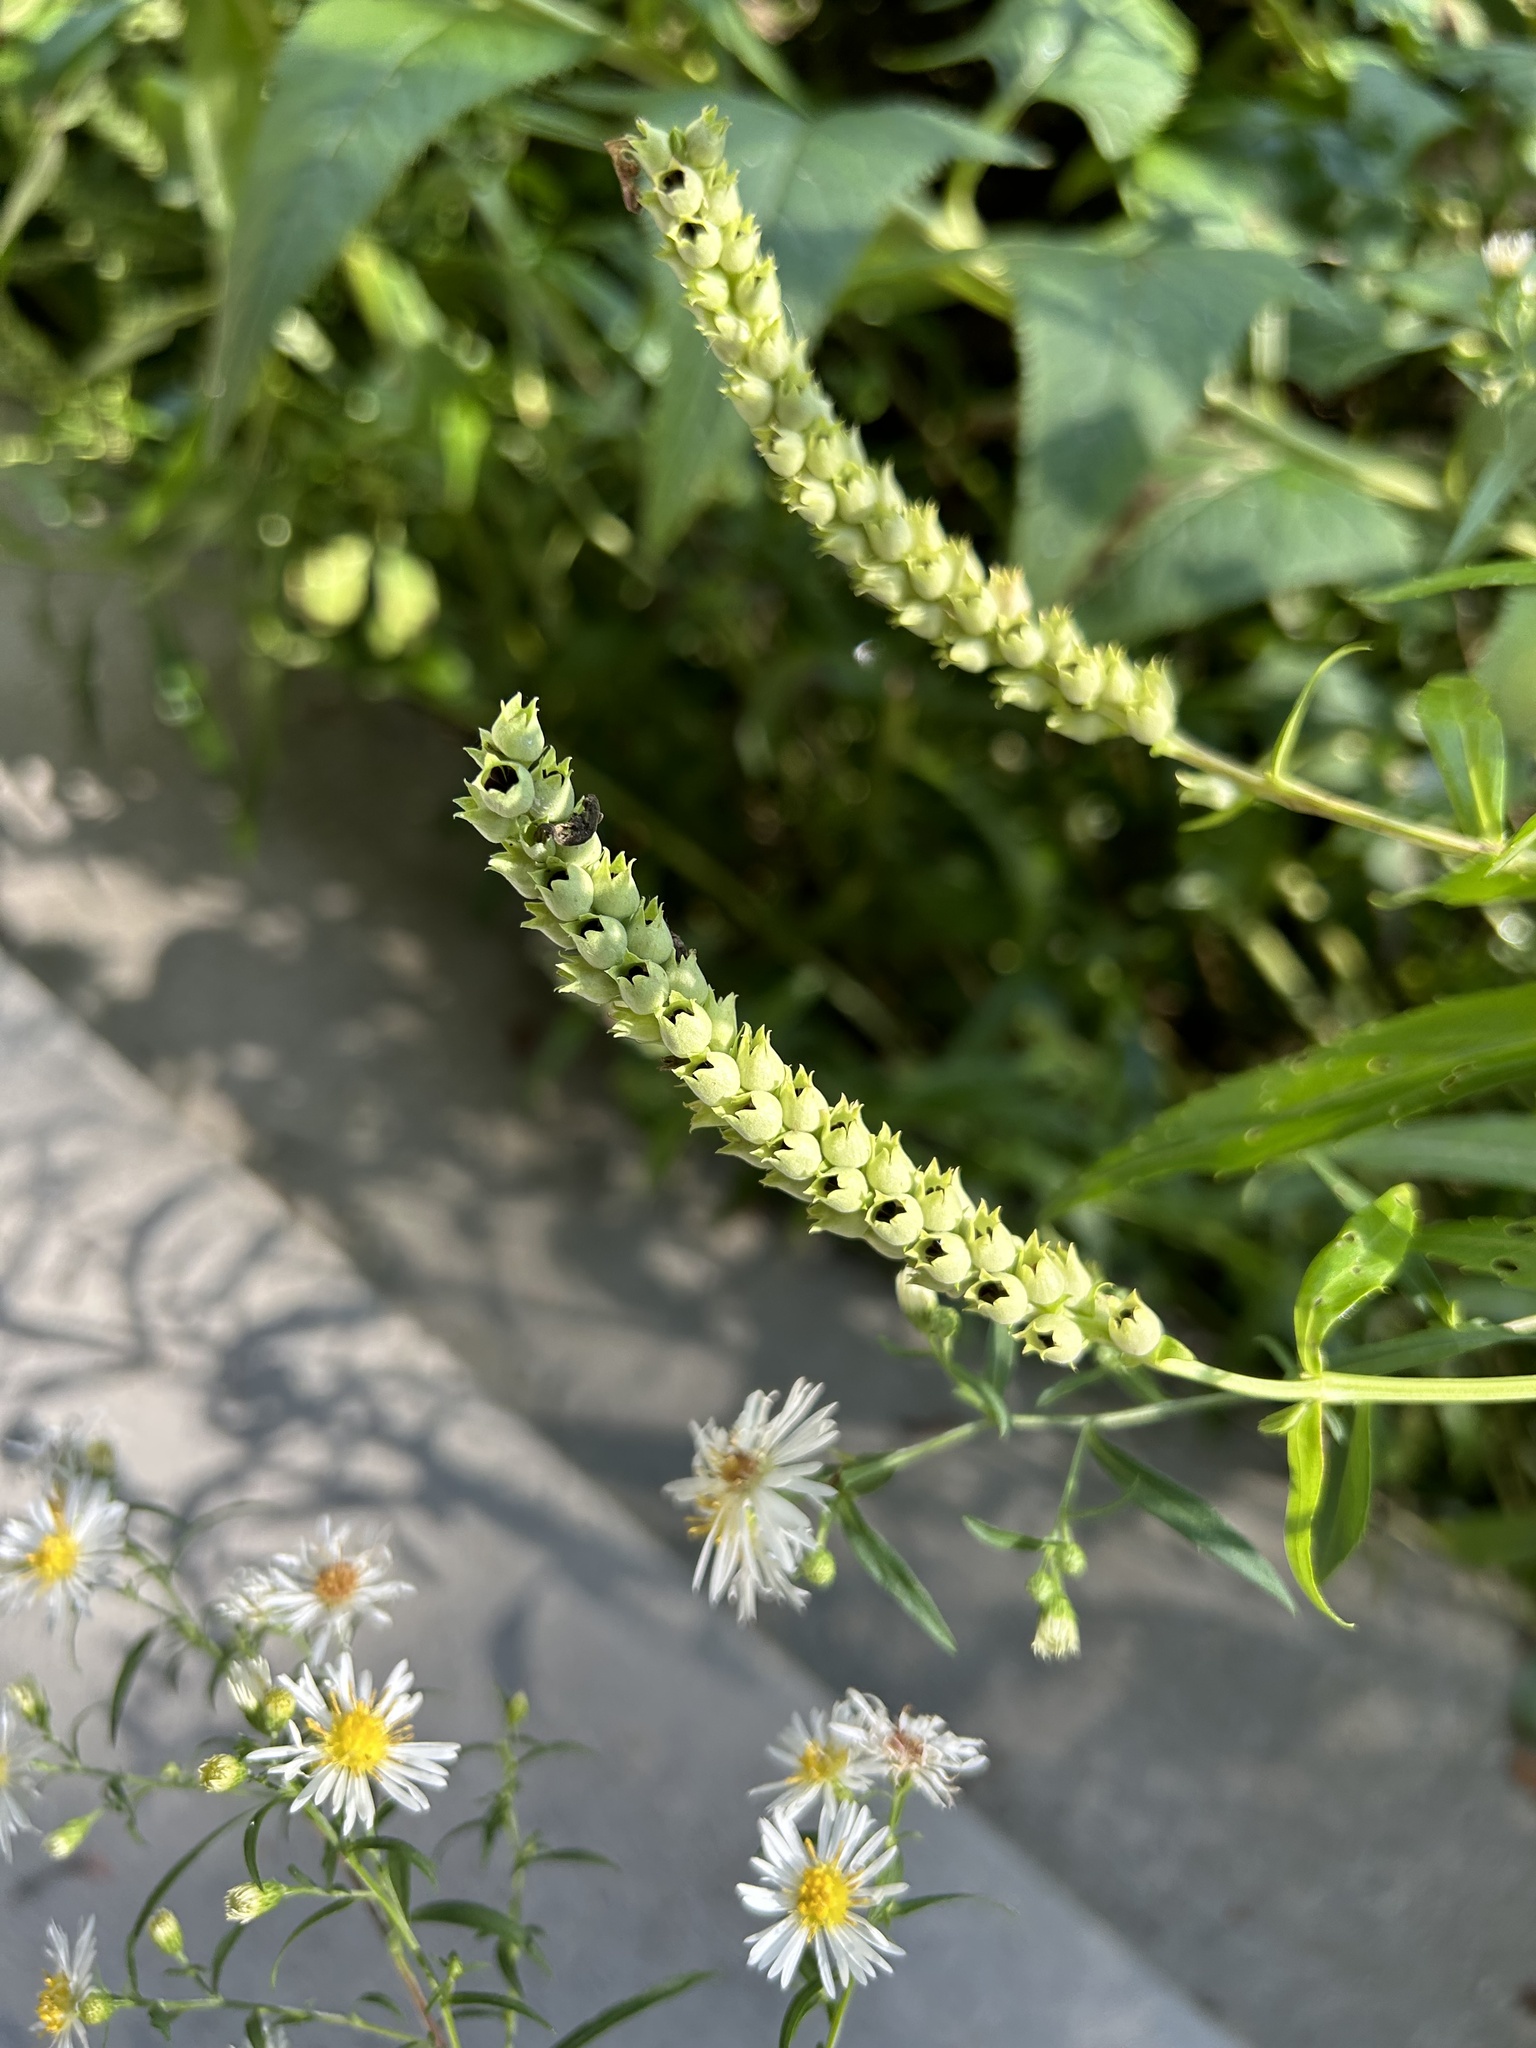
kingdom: Plantae
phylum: Tracheophyta
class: Magnoliopsida
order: Lamiales
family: Lamiaceae
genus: Physostegia
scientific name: Physostegia virginiana
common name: Obedient-plant
